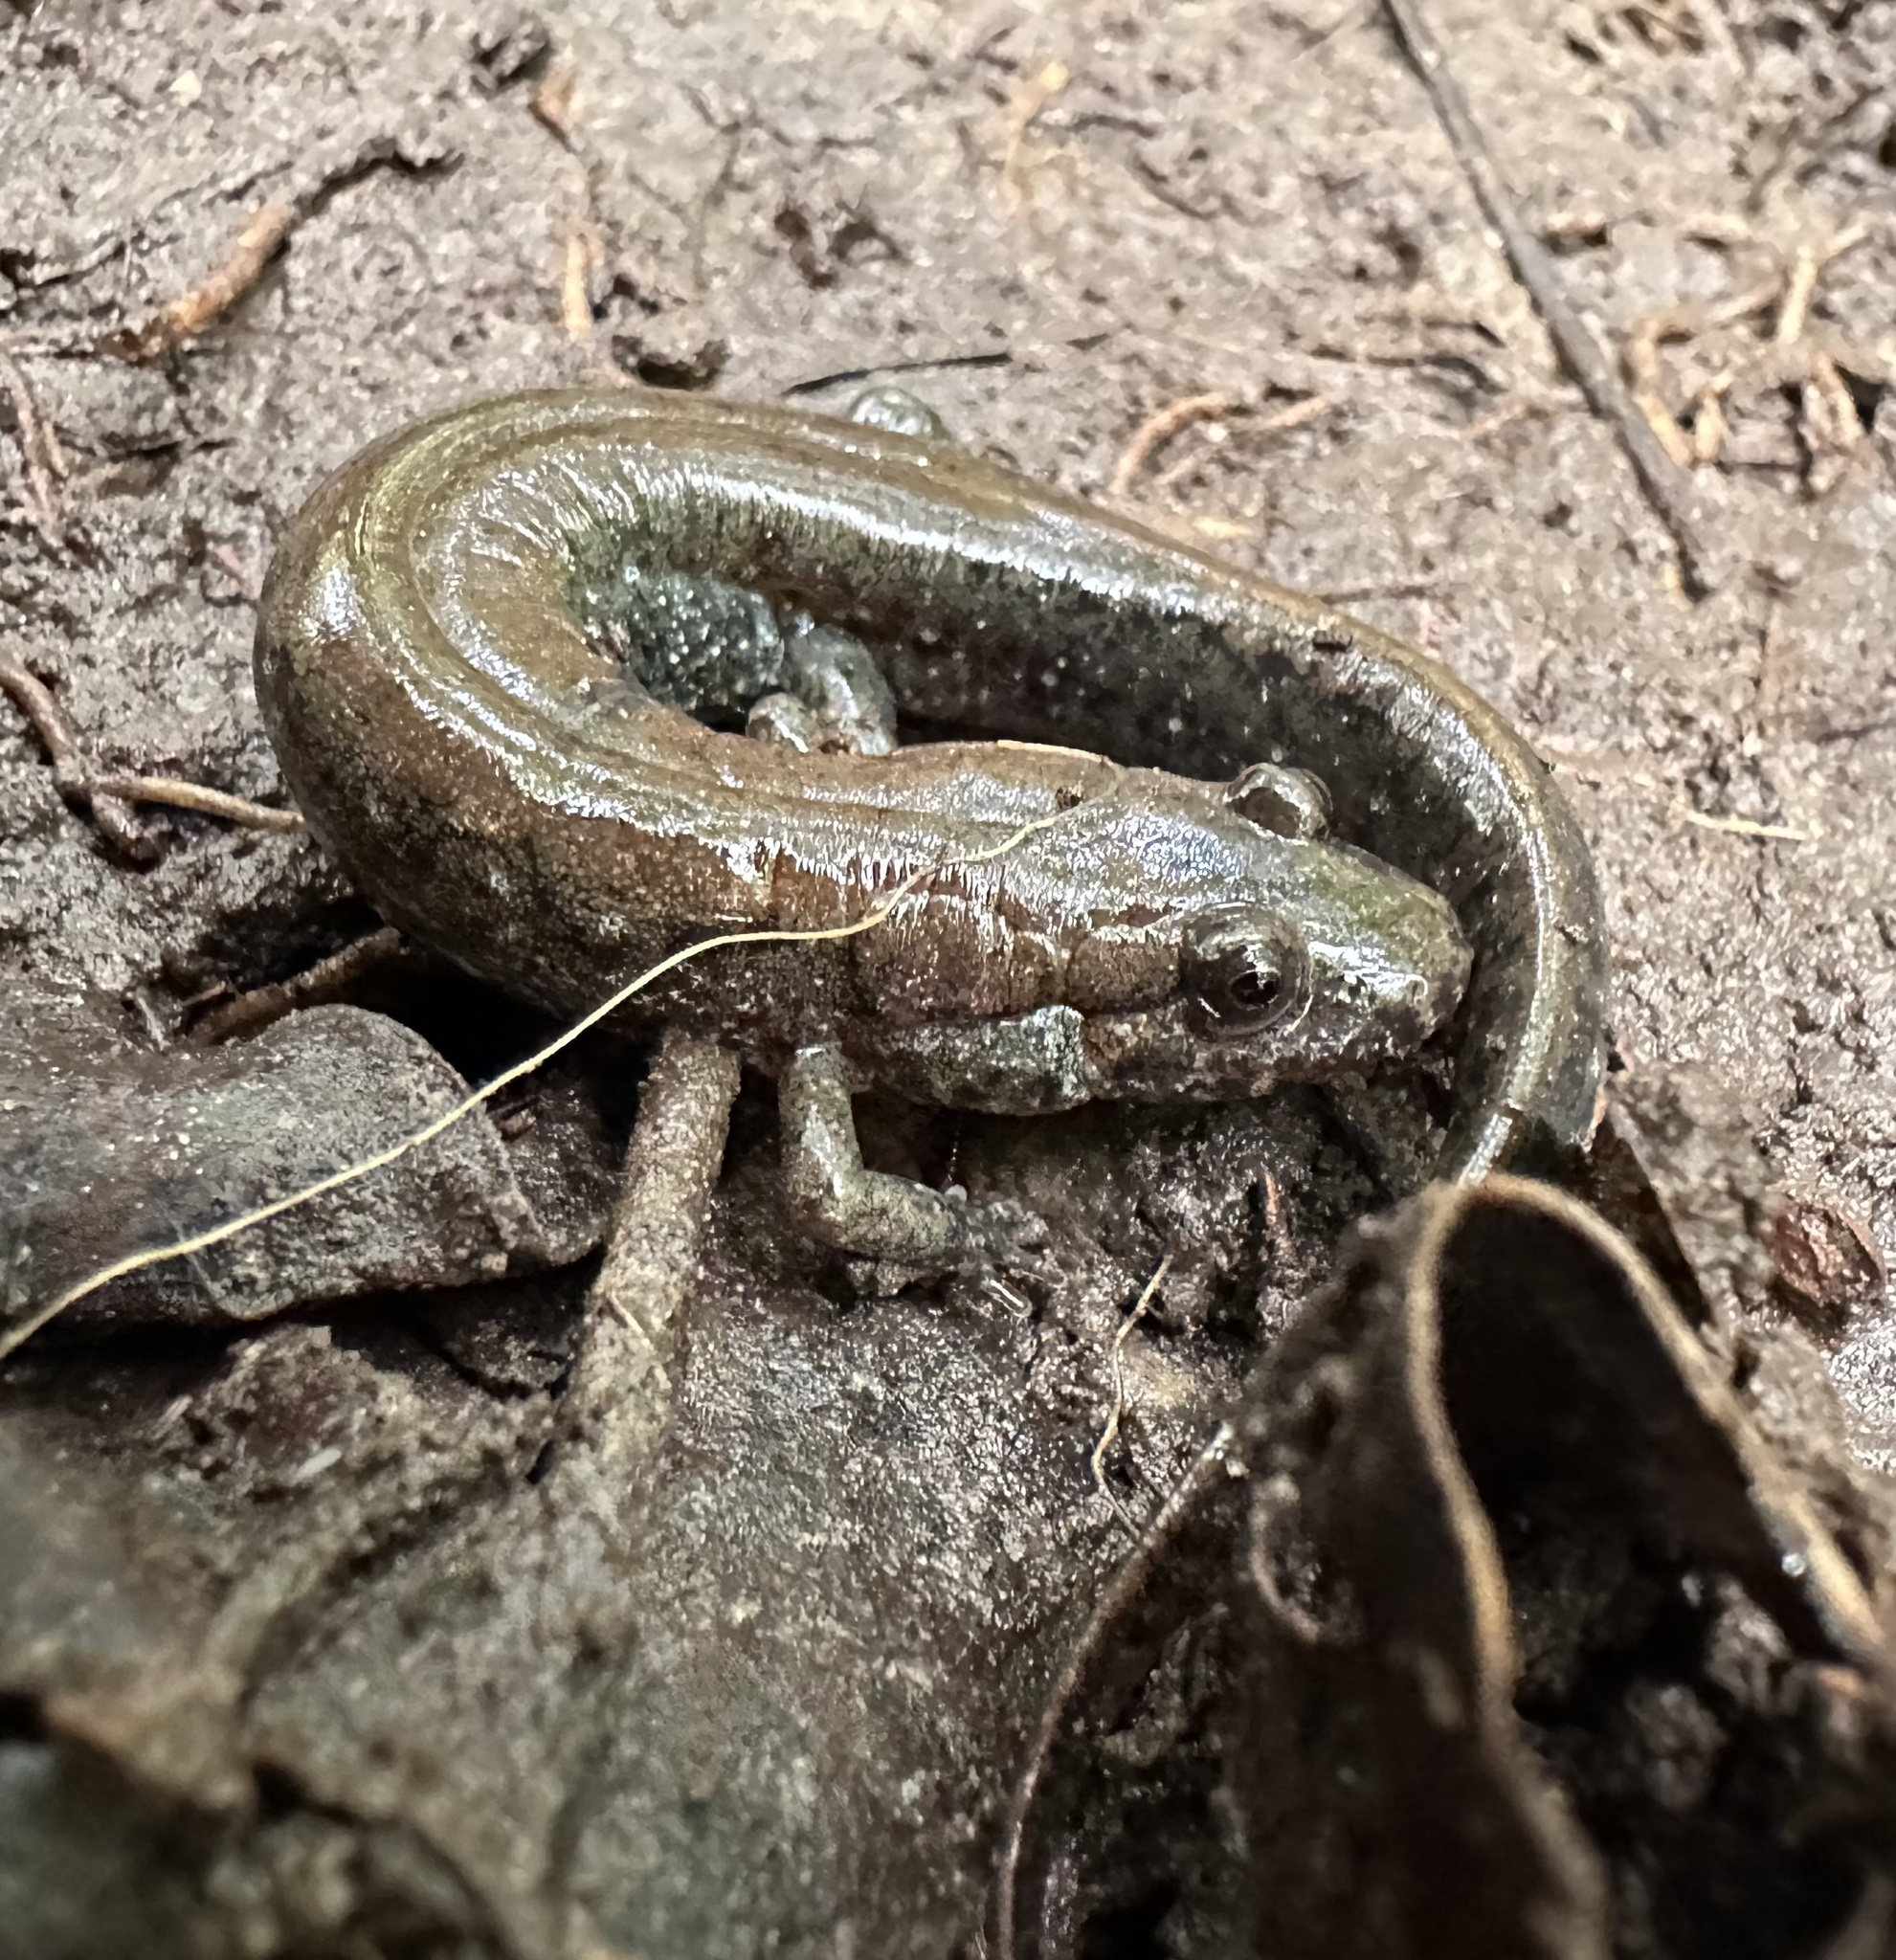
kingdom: Animalia
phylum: Chordata
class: Amphibia
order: Caudata
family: Plethodontidae
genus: Desmognathus
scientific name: Desmognathus
